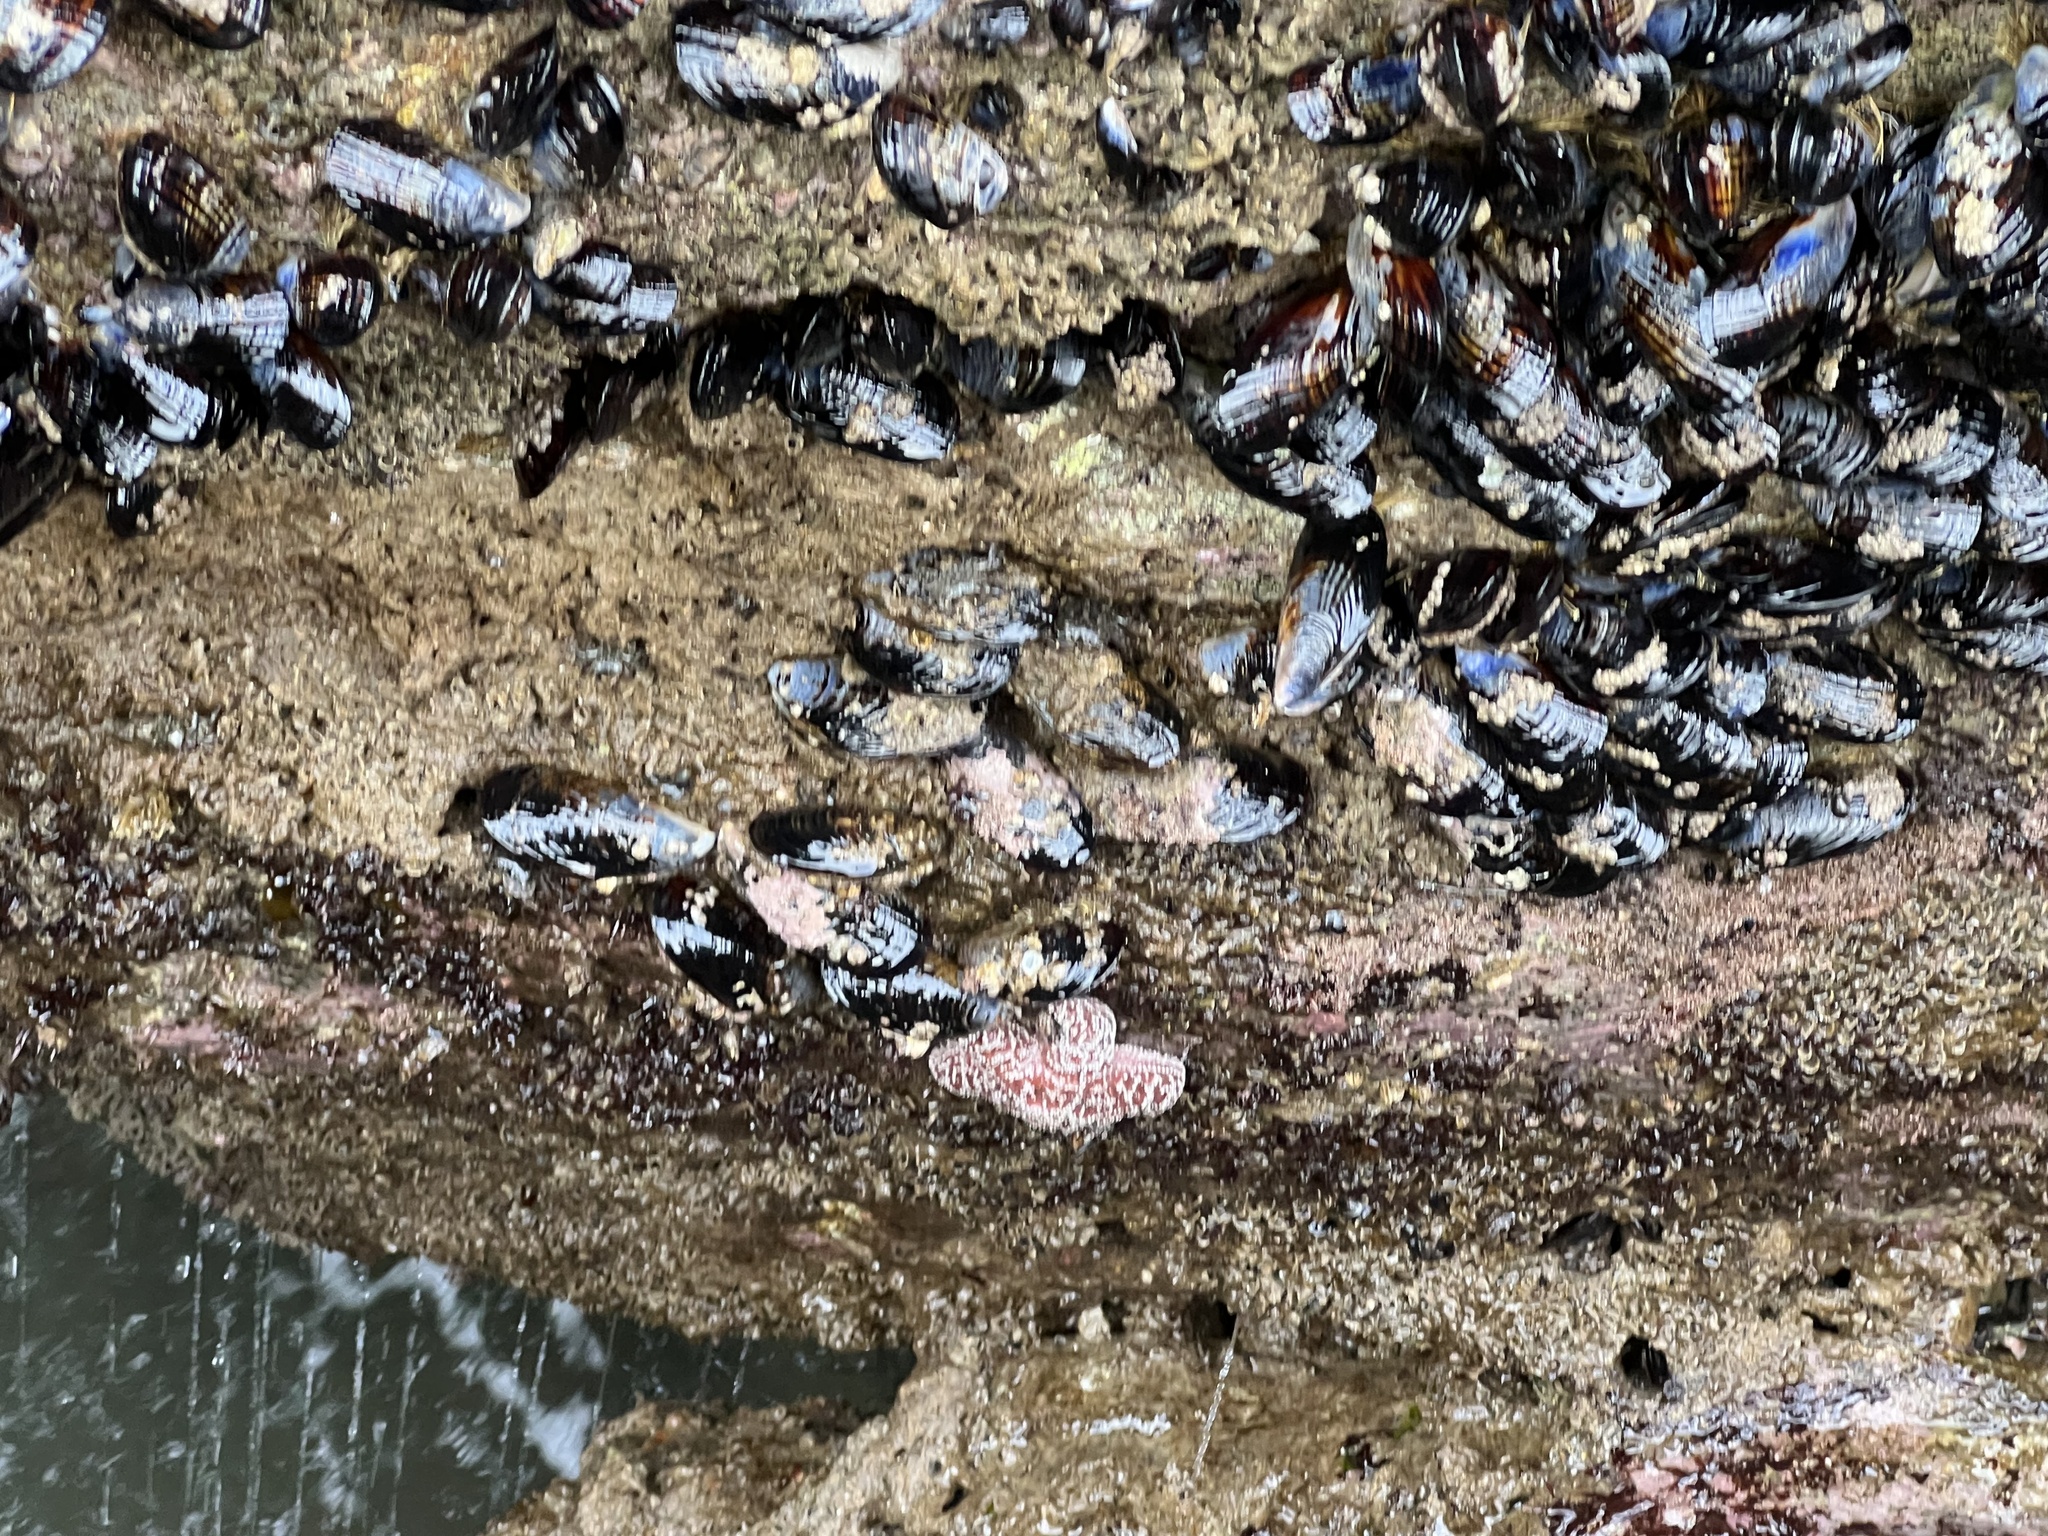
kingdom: Animalia
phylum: Echinodermata
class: Asteroidea
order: Forcipulatida
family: Asteriidae
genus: Pisaster
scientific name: Pisaster ochraceus
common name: Ochre stars
